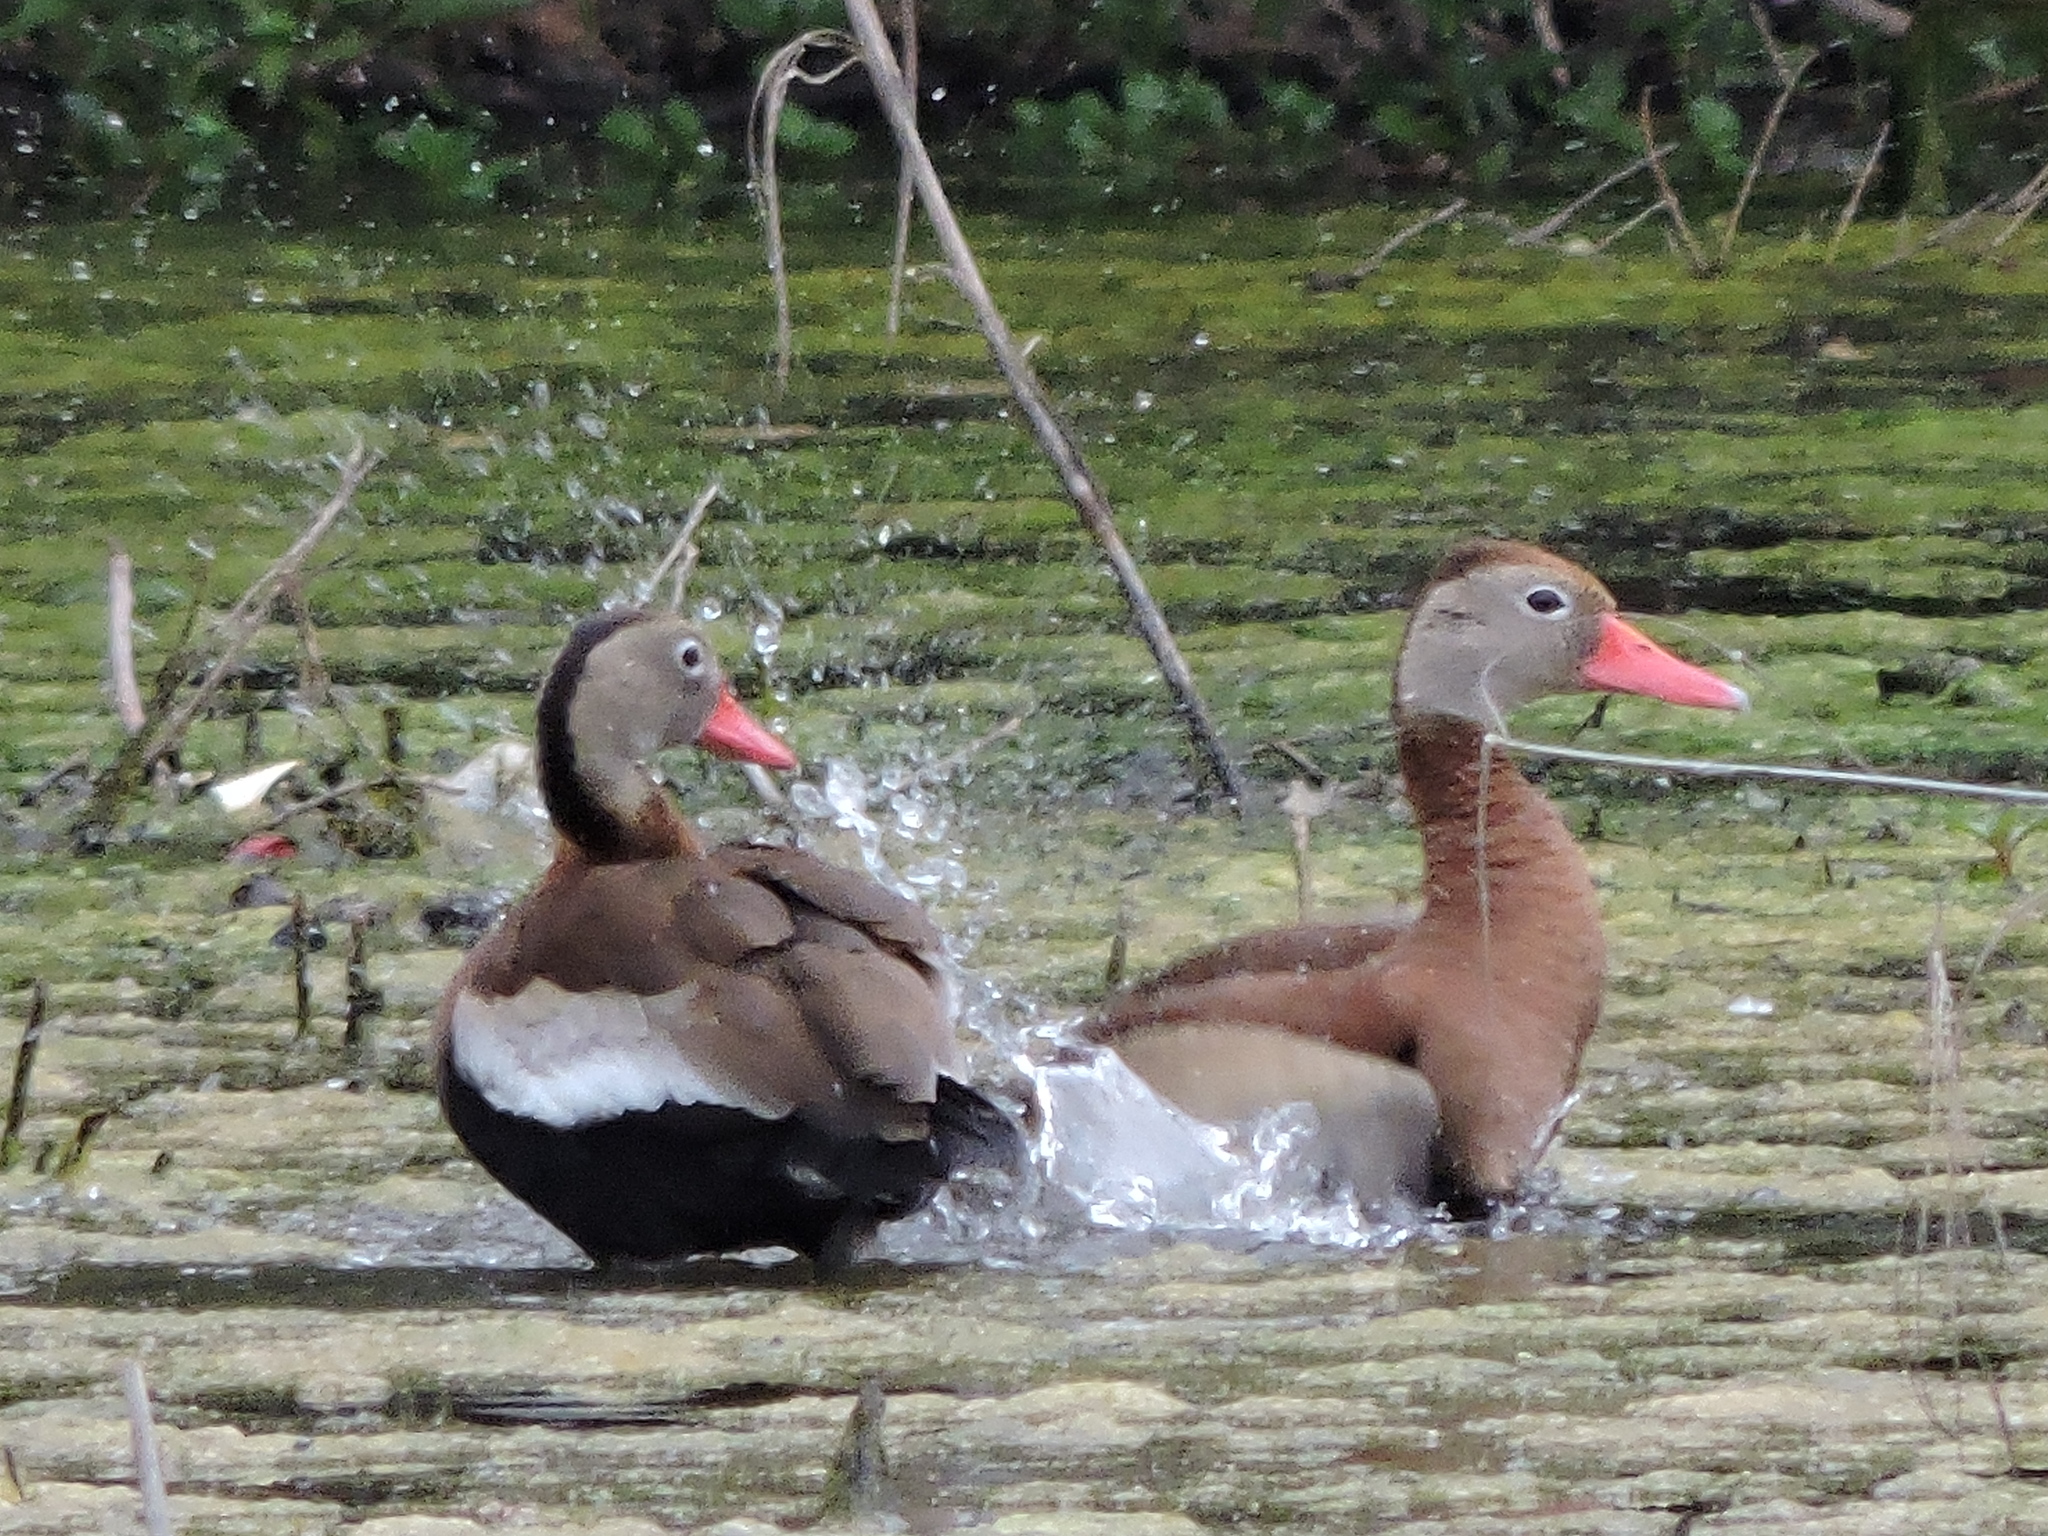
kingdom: Animalia
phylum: Chordata
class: Aves
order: Anseriformes
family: Anatidae
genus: Dendrocygna
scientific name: Dendrocygna autumnalis
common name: Black-bellied whistling duck
